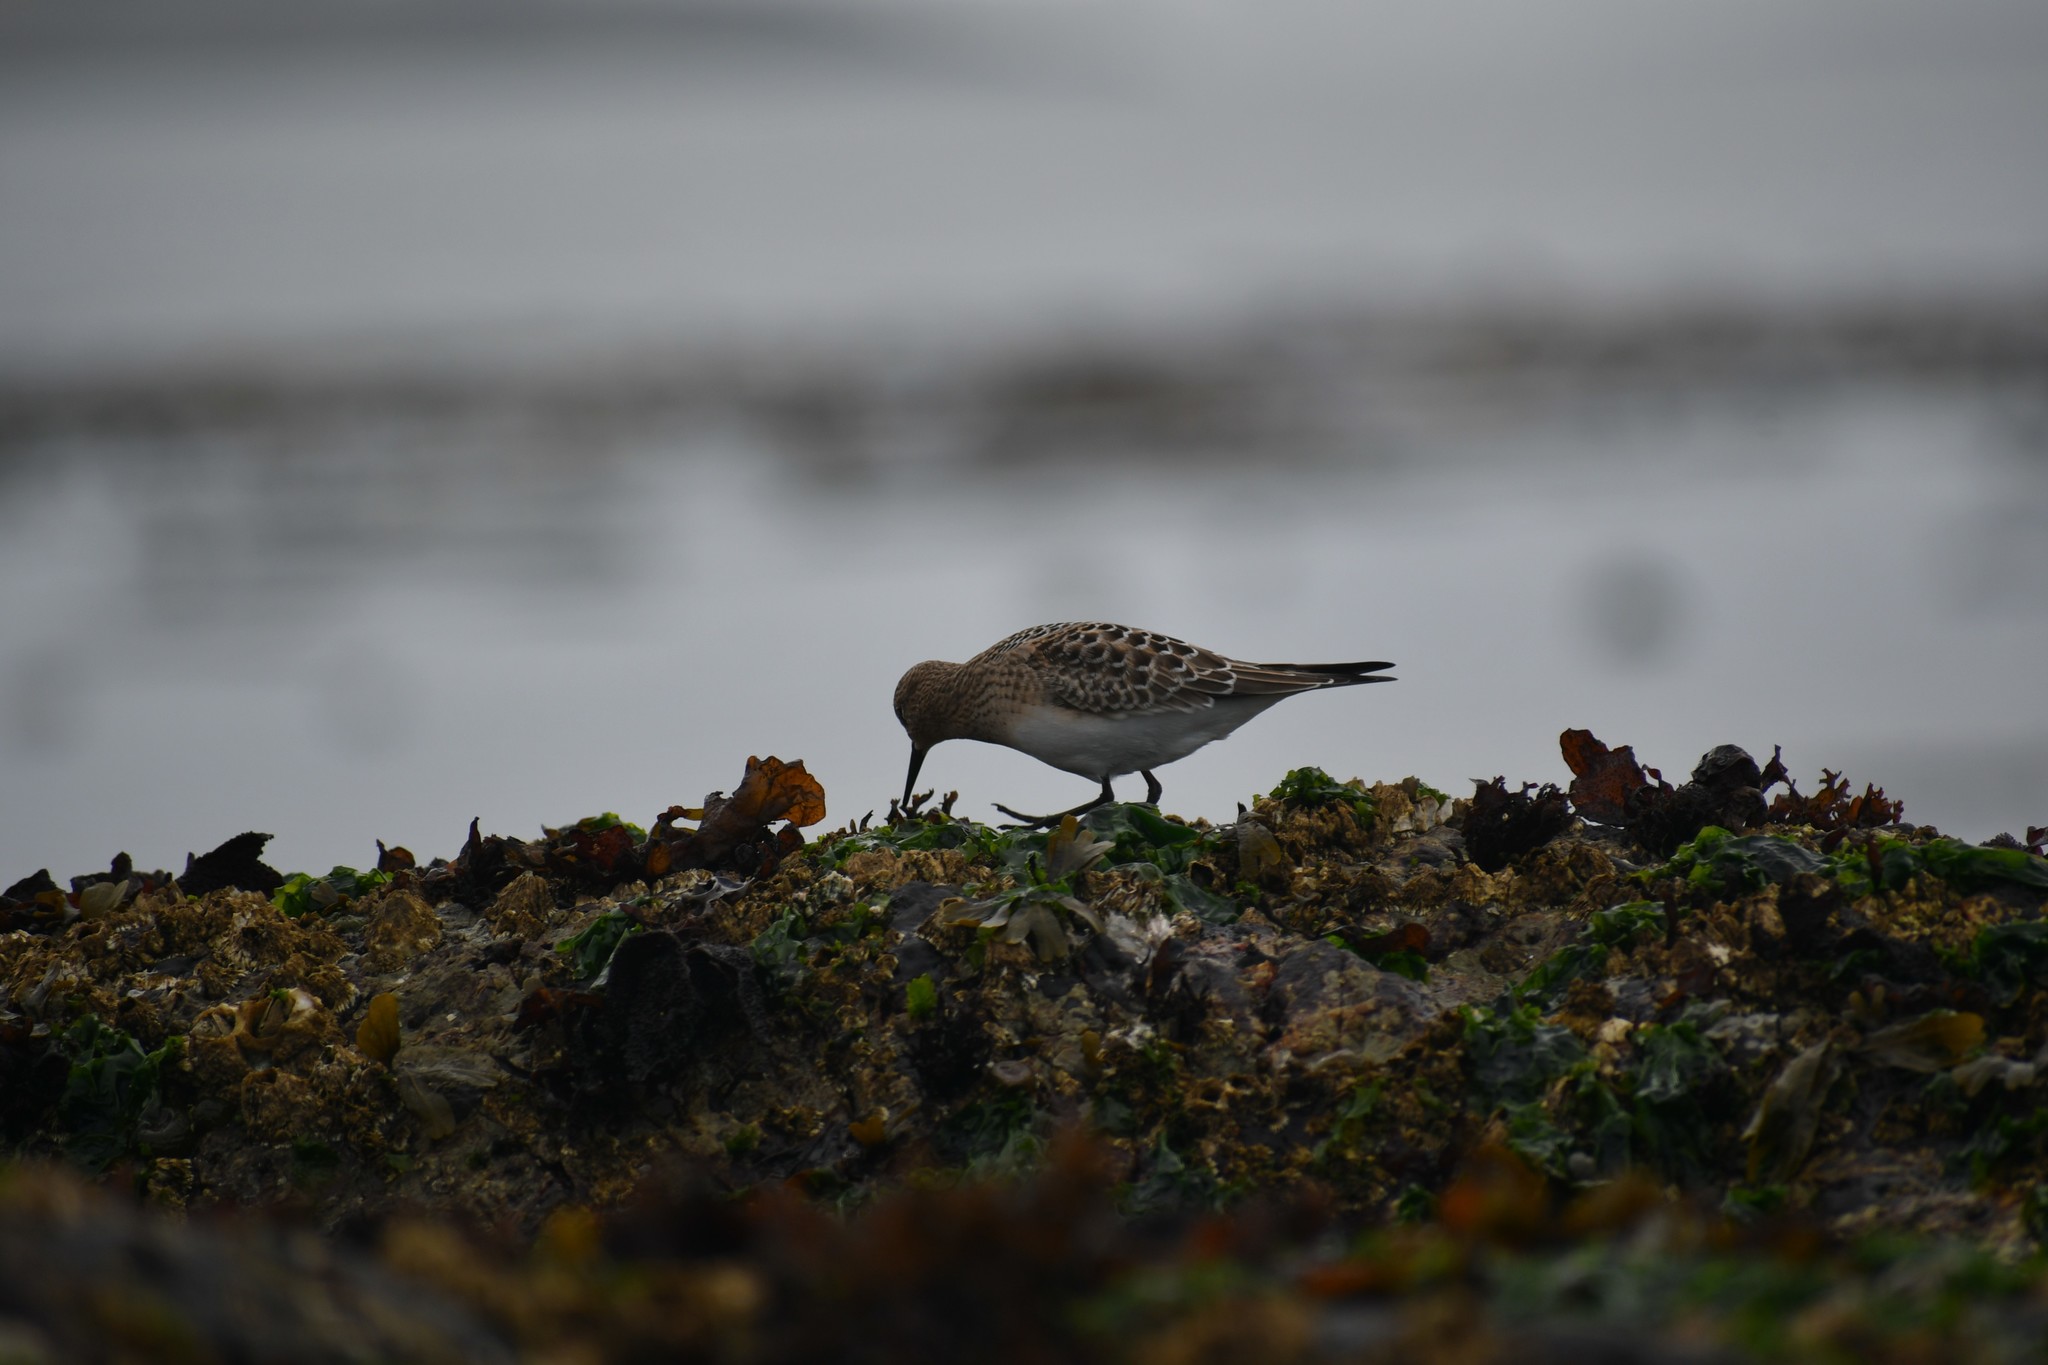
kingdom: Animalia
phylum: Chordata
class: Aves
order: Charadriiformes
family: Scolopacidae
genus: Calidris
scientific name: Calidris bairdii
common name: Baird's sandpiper
